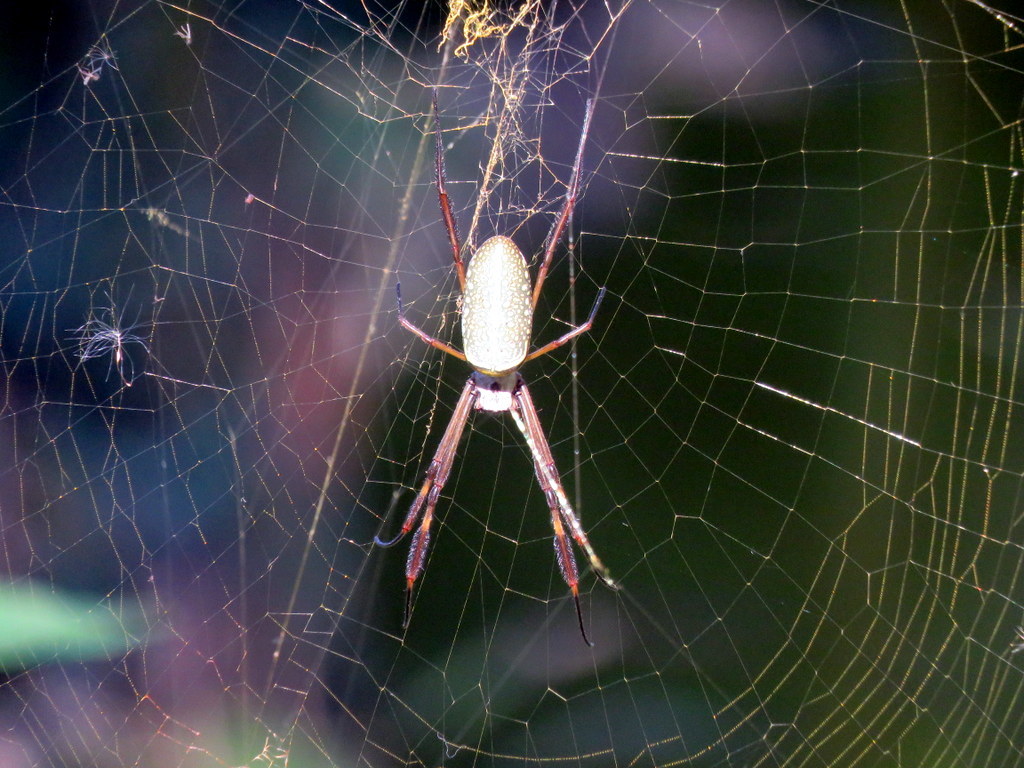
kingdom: Animalia
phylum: Arthropoda
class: Arachnida
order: Araneae
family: Araneidae
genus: Trichonephila
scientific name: Trichonephila clavipes
